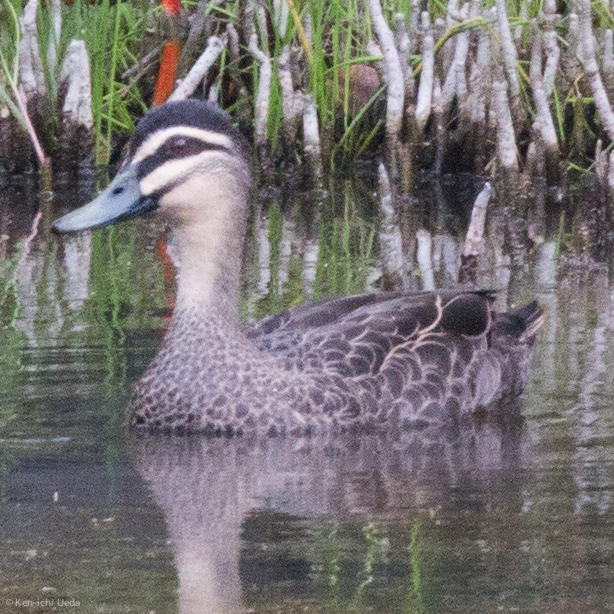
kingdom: Animalia
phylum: Chordata
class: Aves
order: Anseriformes
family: Anatidae
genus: Anas
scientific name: Anas superciliosa
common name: Pacific black duck
